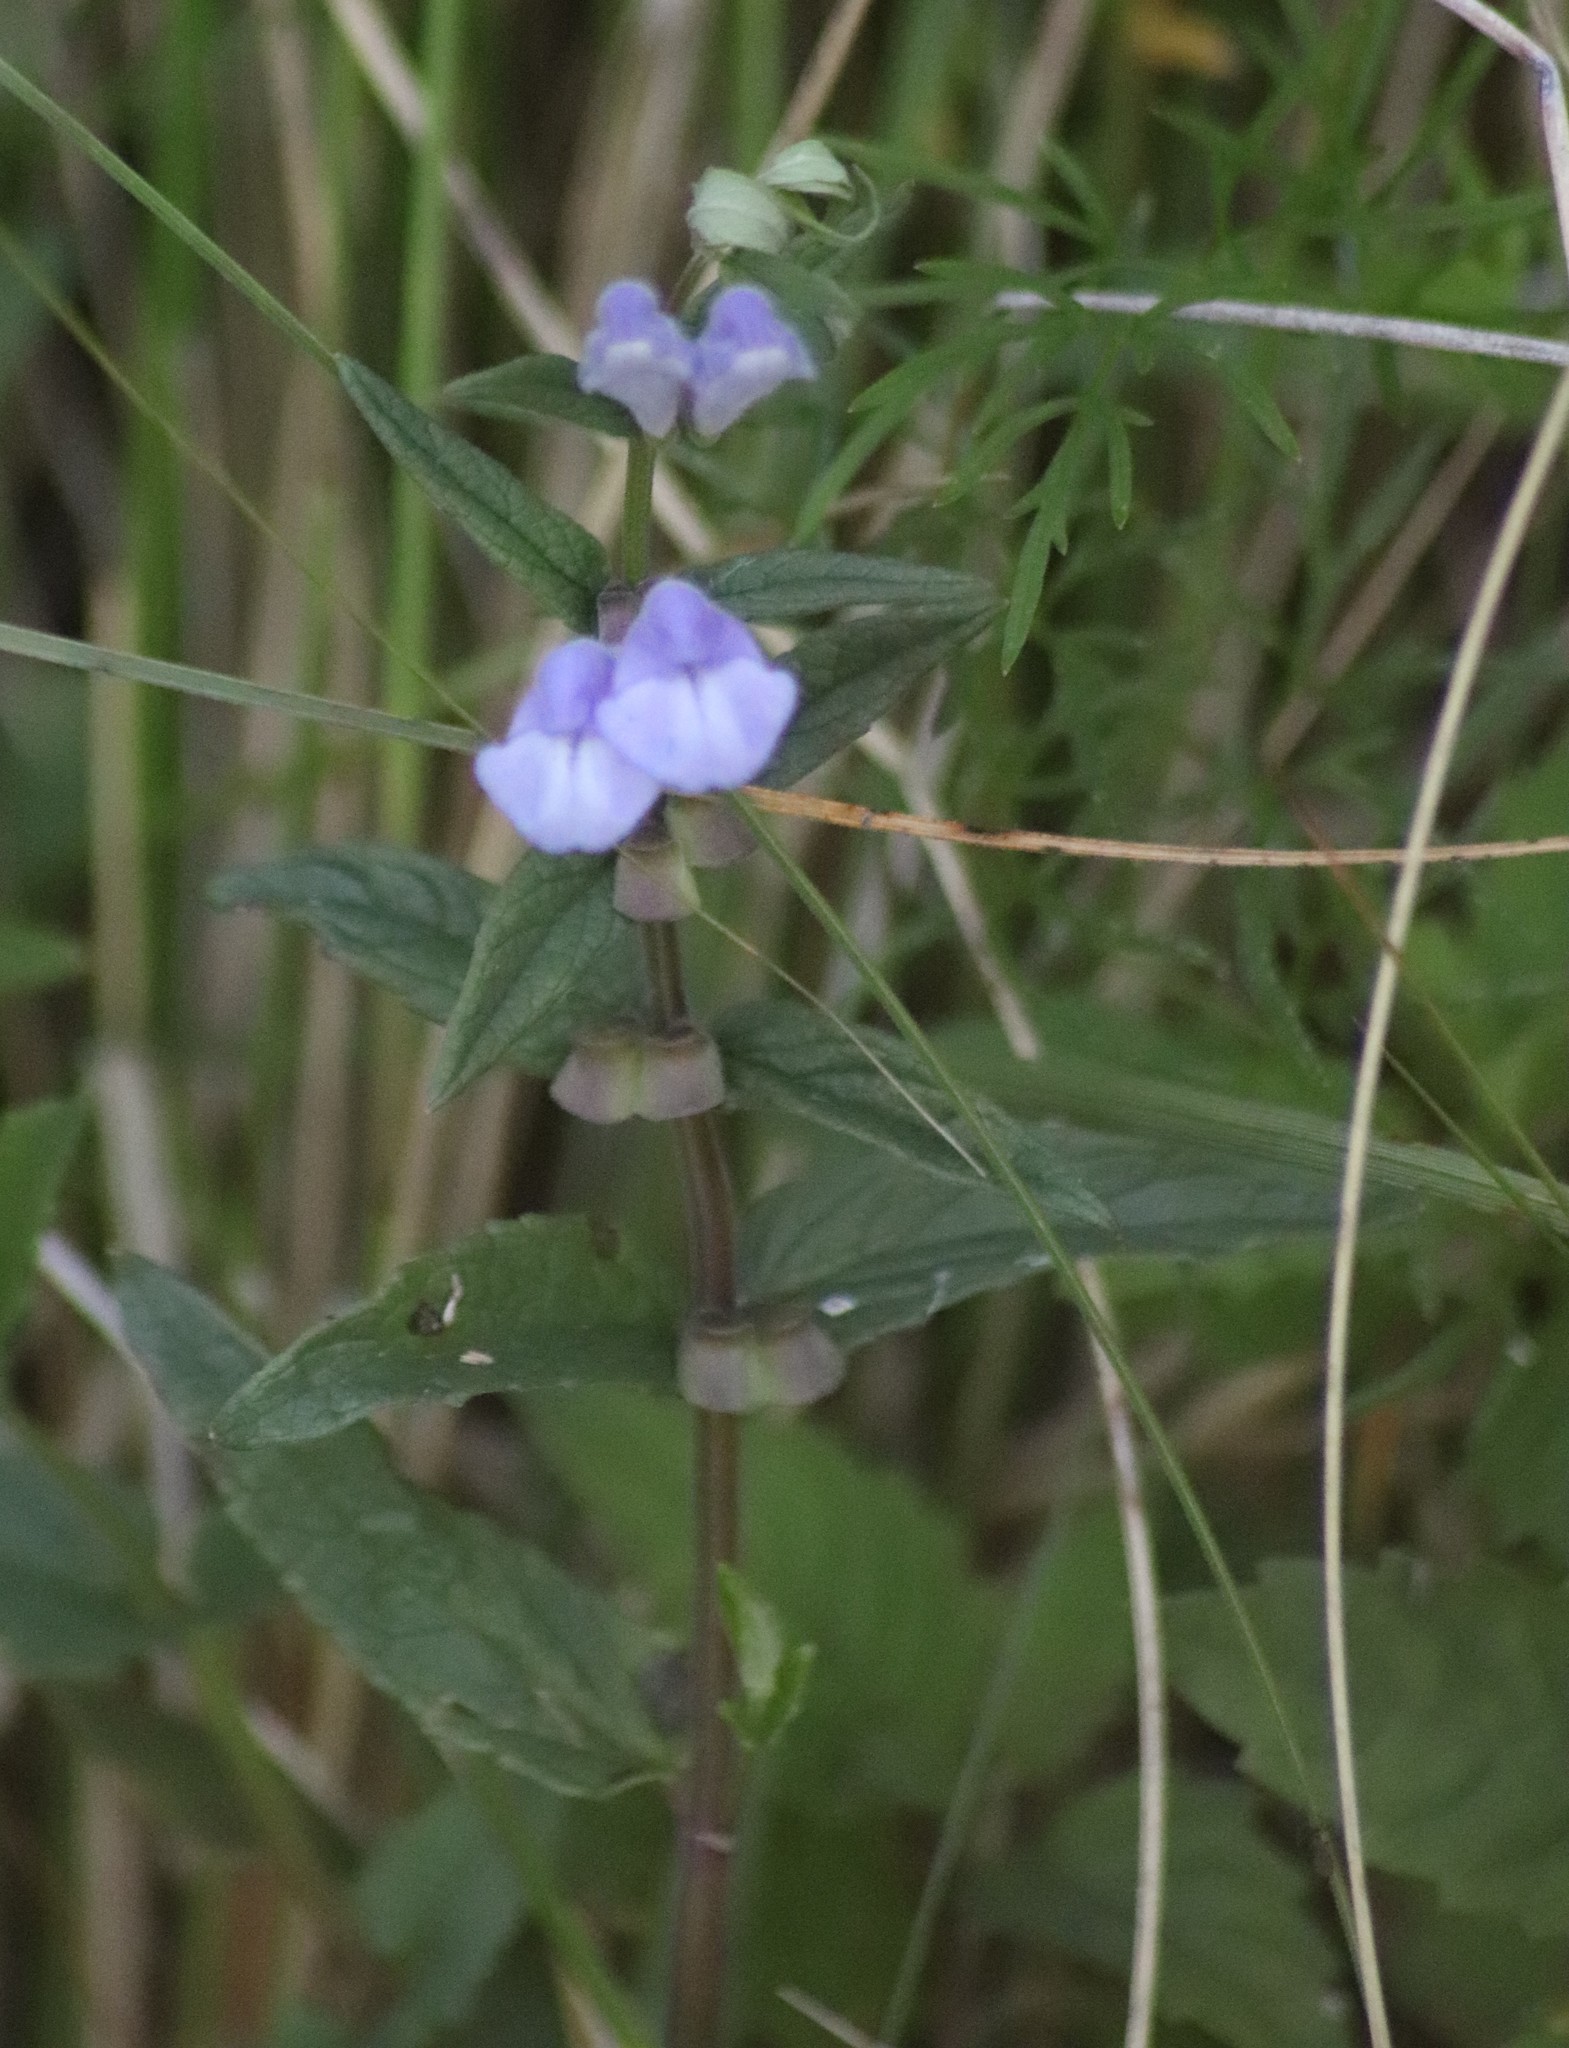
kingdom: Plantae
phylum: Tracheophyta
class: Magnoliopsida
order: Lamiales
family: Lamiaceae
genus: Scutellaria
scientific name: Scutellaria galericulata
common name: Skullcap
